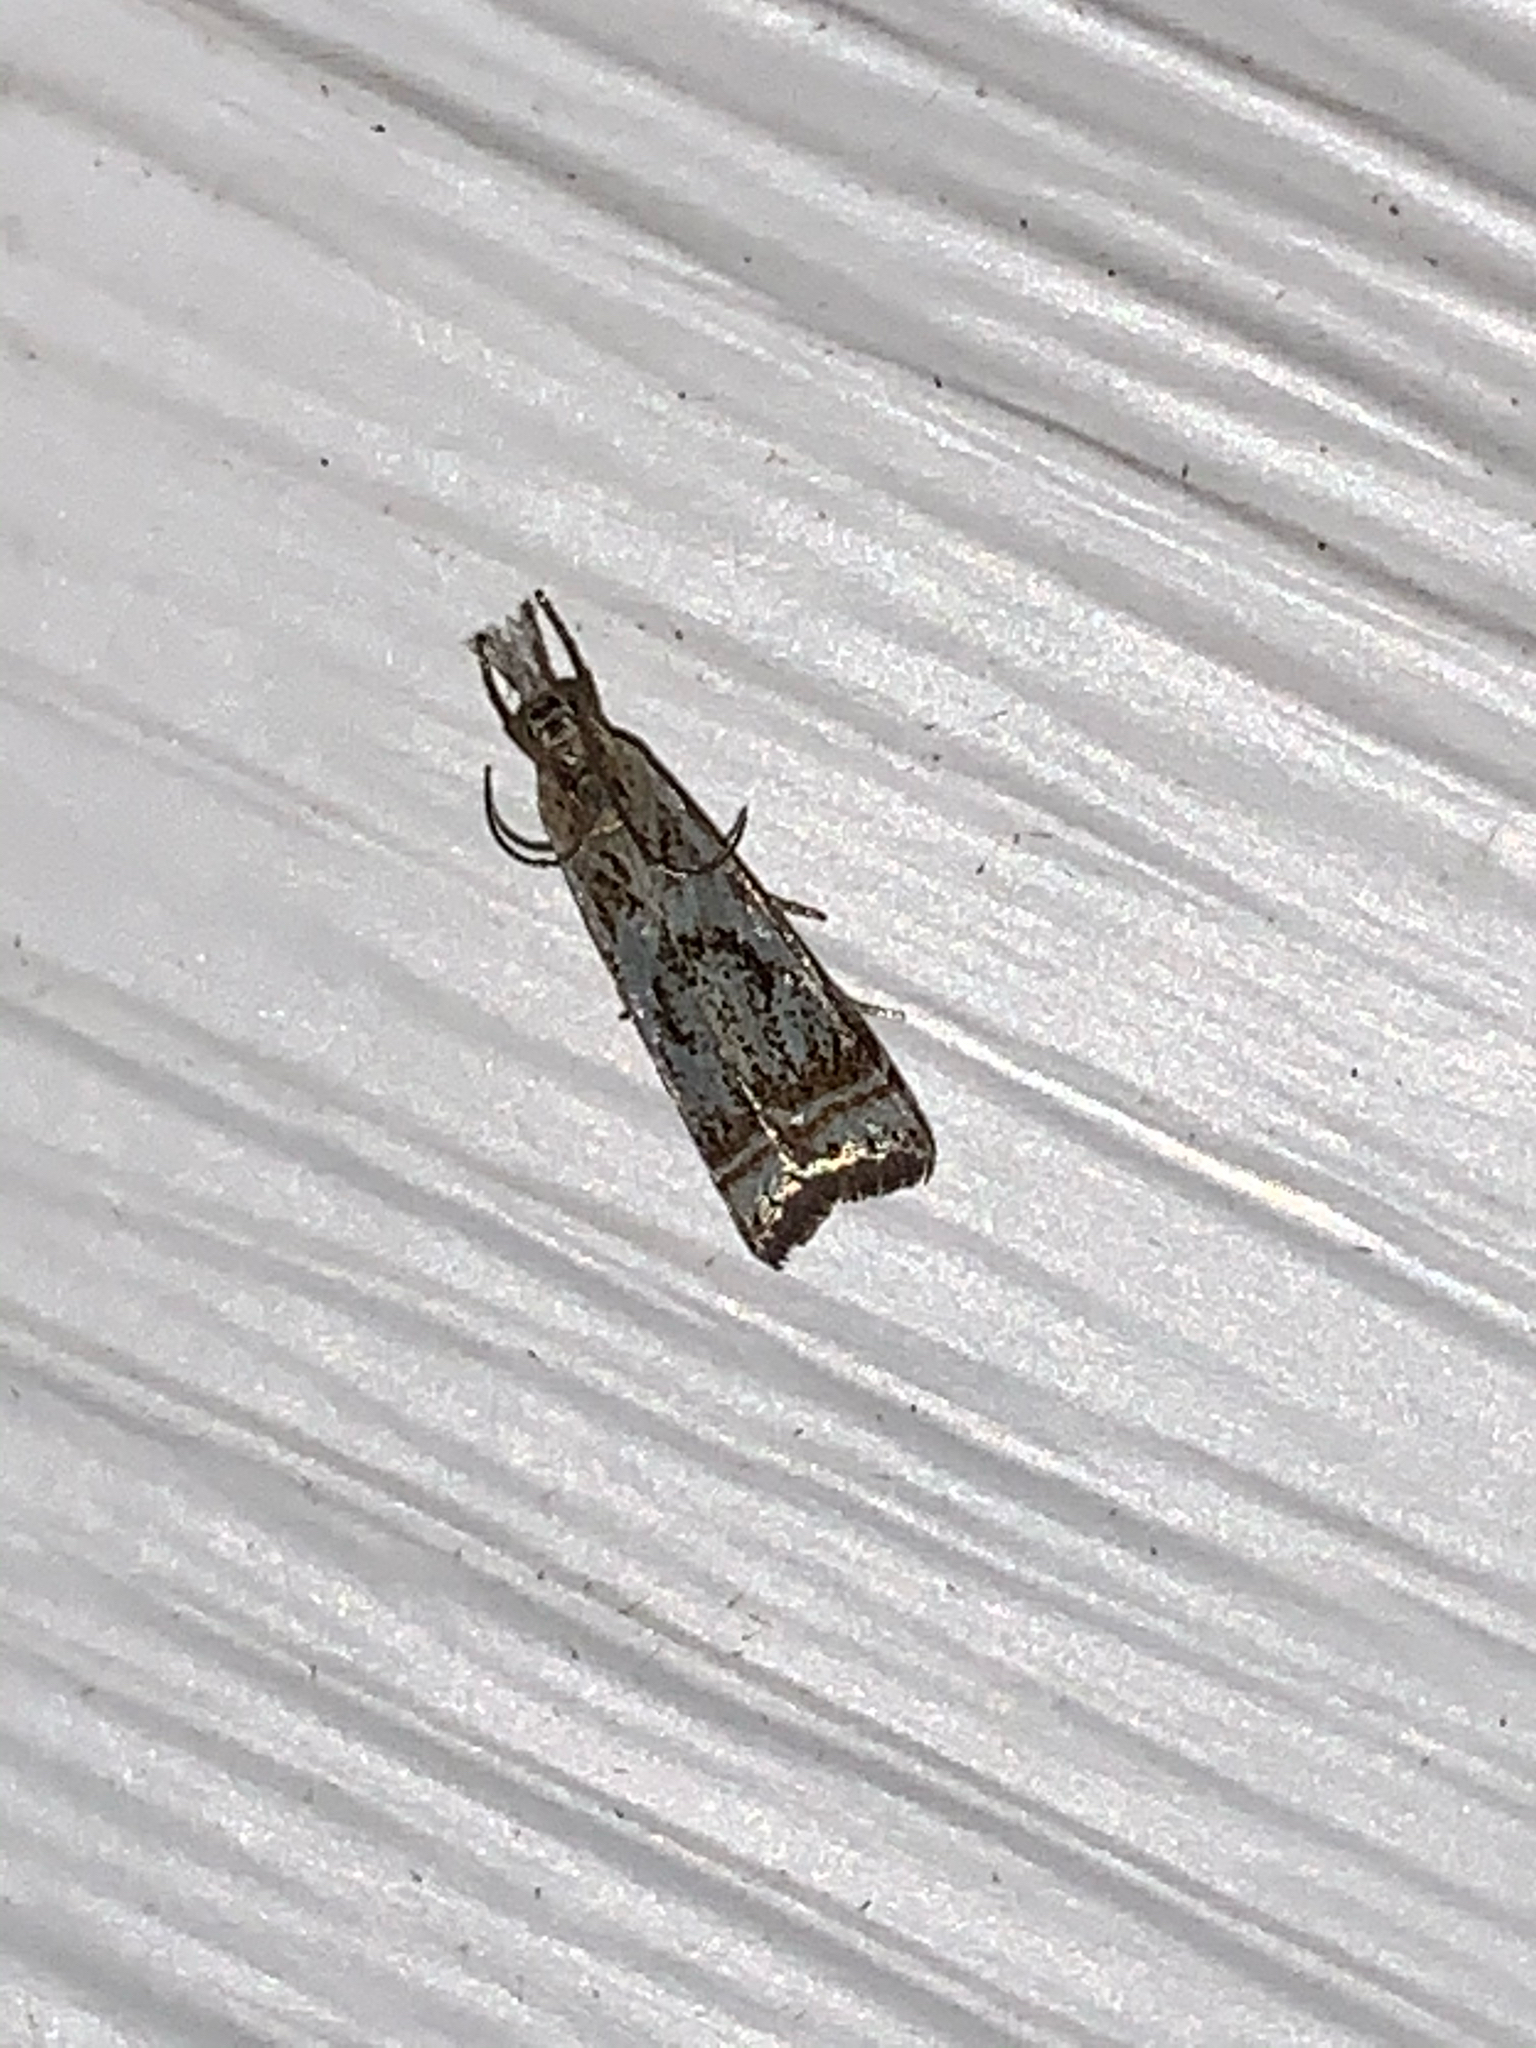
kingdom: Animalia
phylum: Arthropoda
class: Insecta
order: Lepidoptera
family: Crambidae
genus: Microcrambus
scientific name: Microcrambus elegans
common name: Elegant grass-veneer
